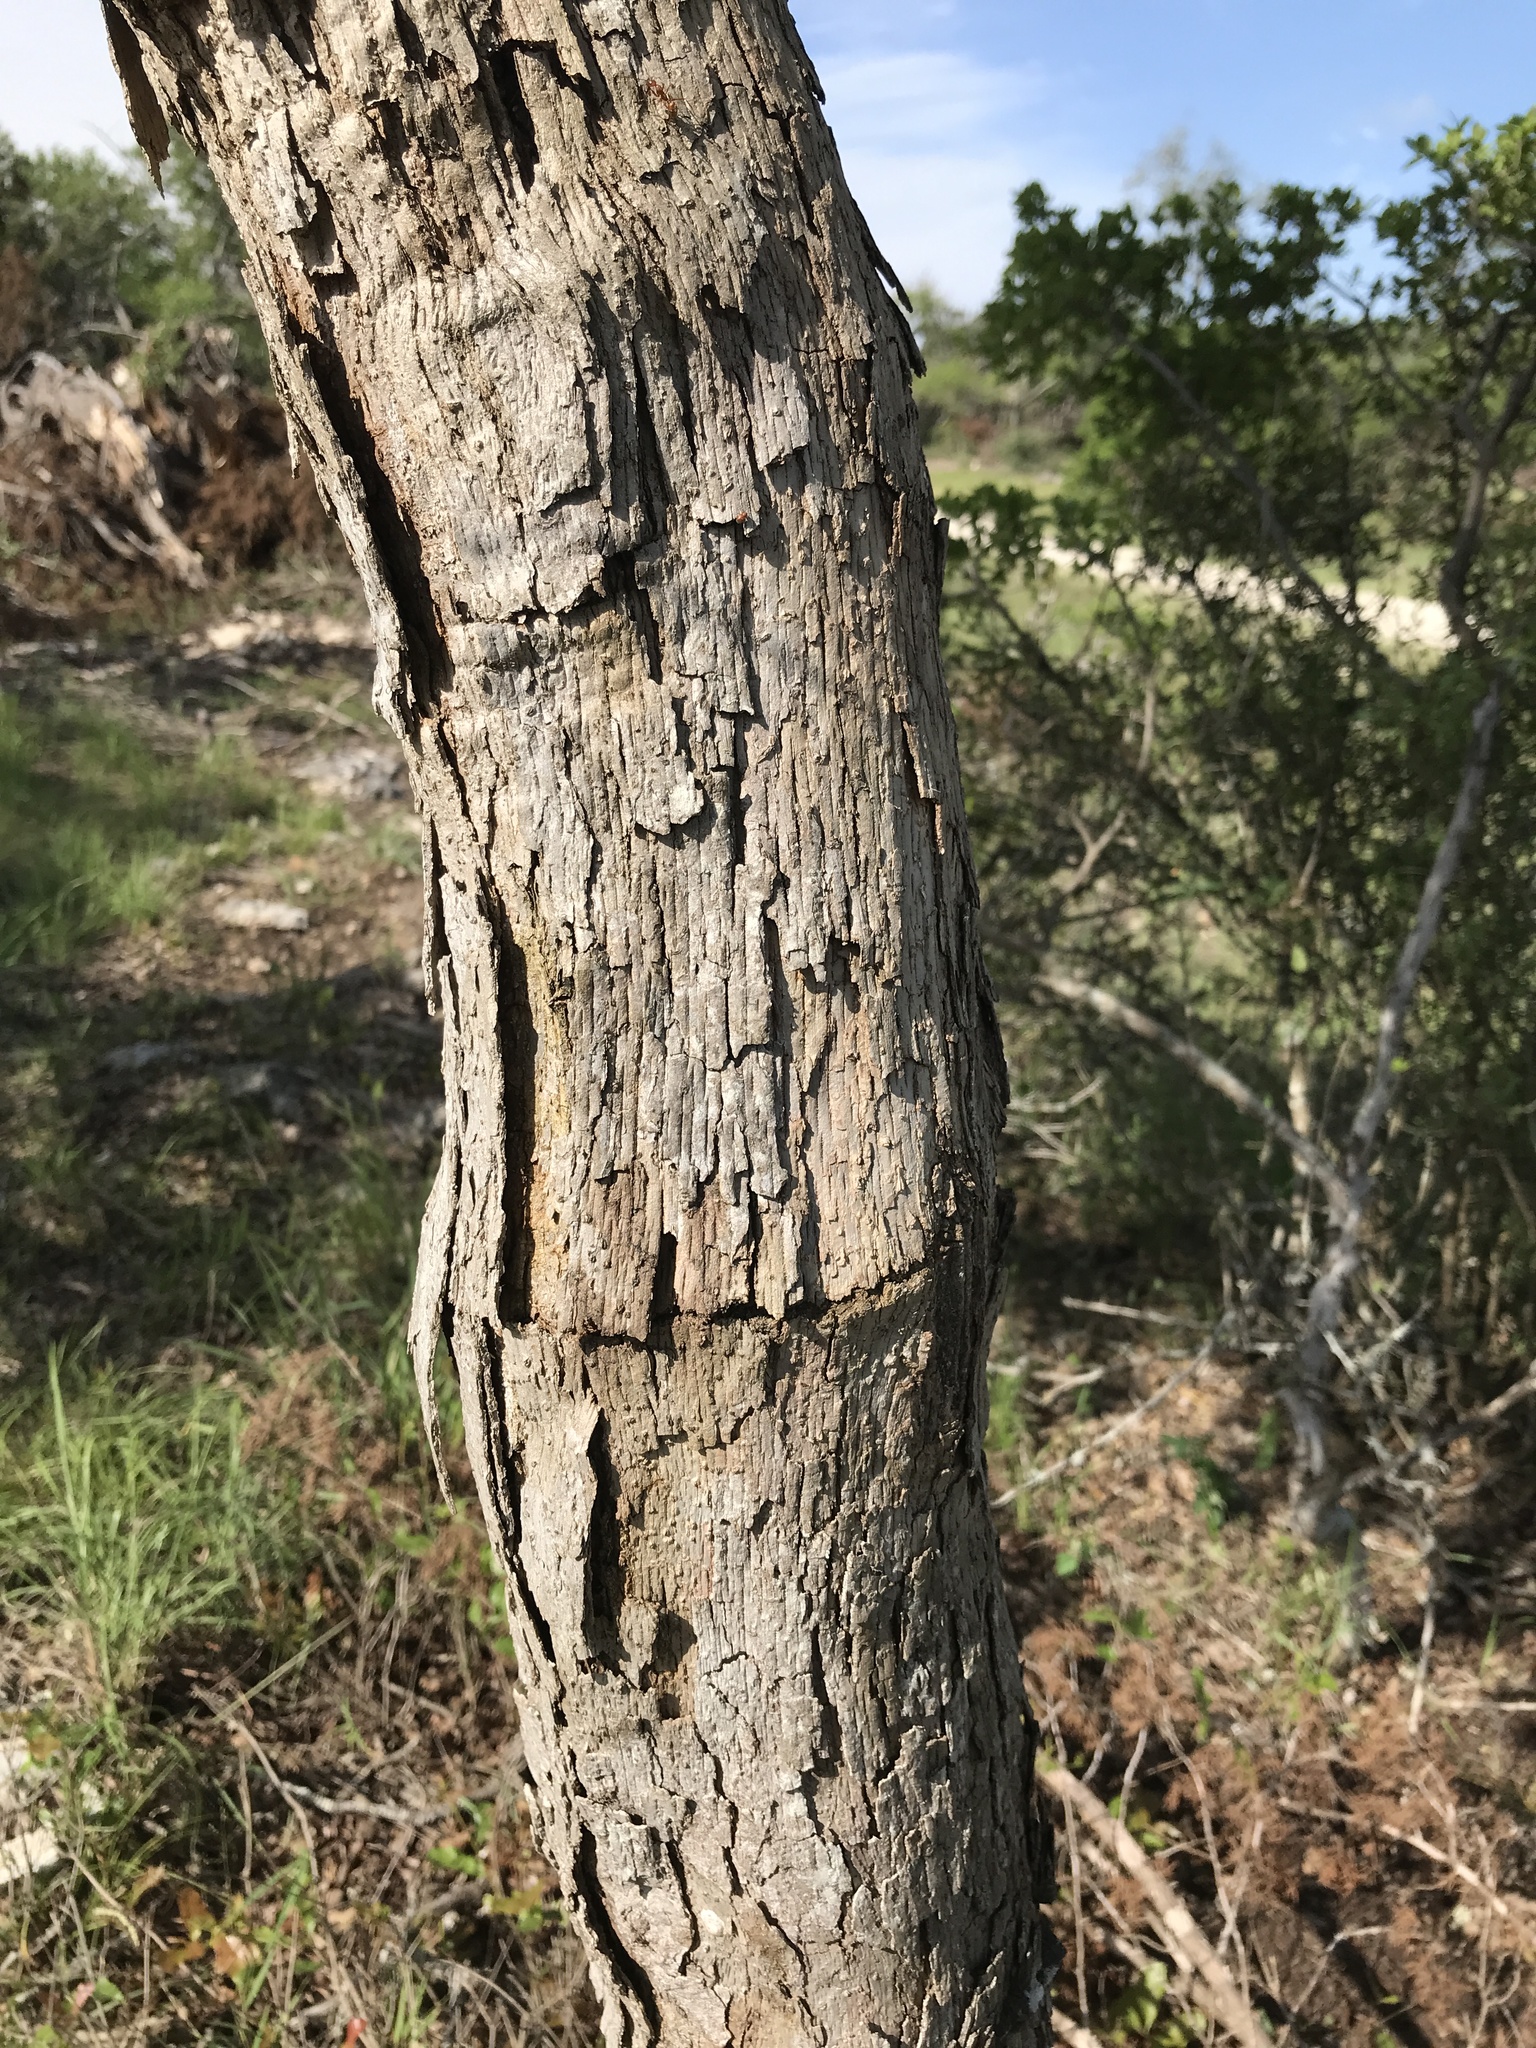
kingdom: Plantae
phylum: Tracheophyta
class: Magnoliopsida
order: Fagales
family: Fagaceae
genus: Quercus
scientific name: Quercus sinuata
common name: Durand oak
